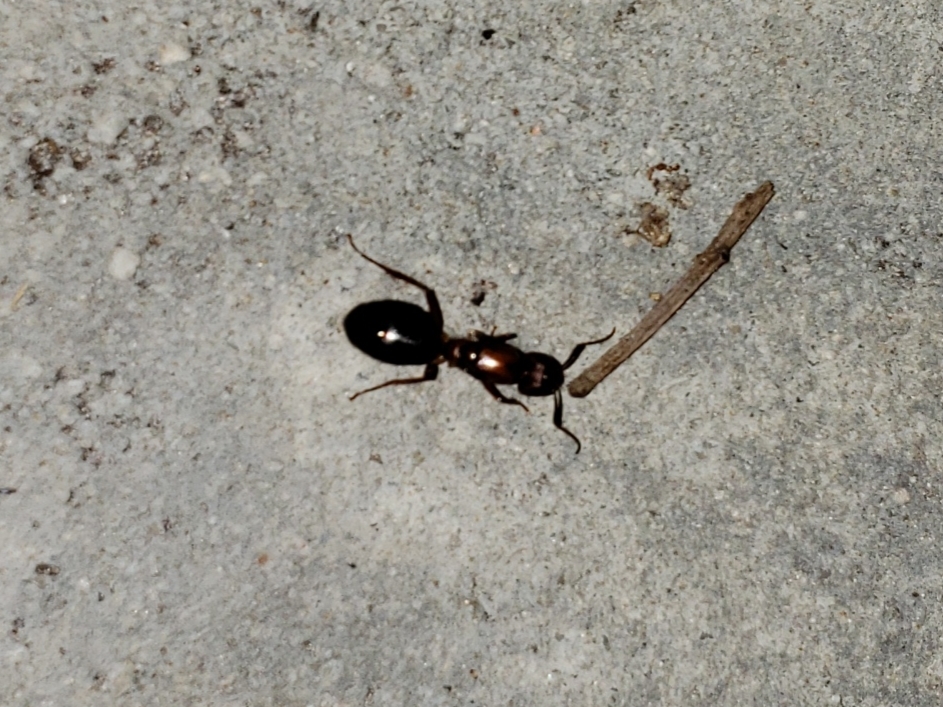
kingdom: Animalia
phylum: Arthropoda
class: Insecta
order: Hymenoptera
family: Formicidae
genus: Camponotus
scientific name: Camponotus floridanus
